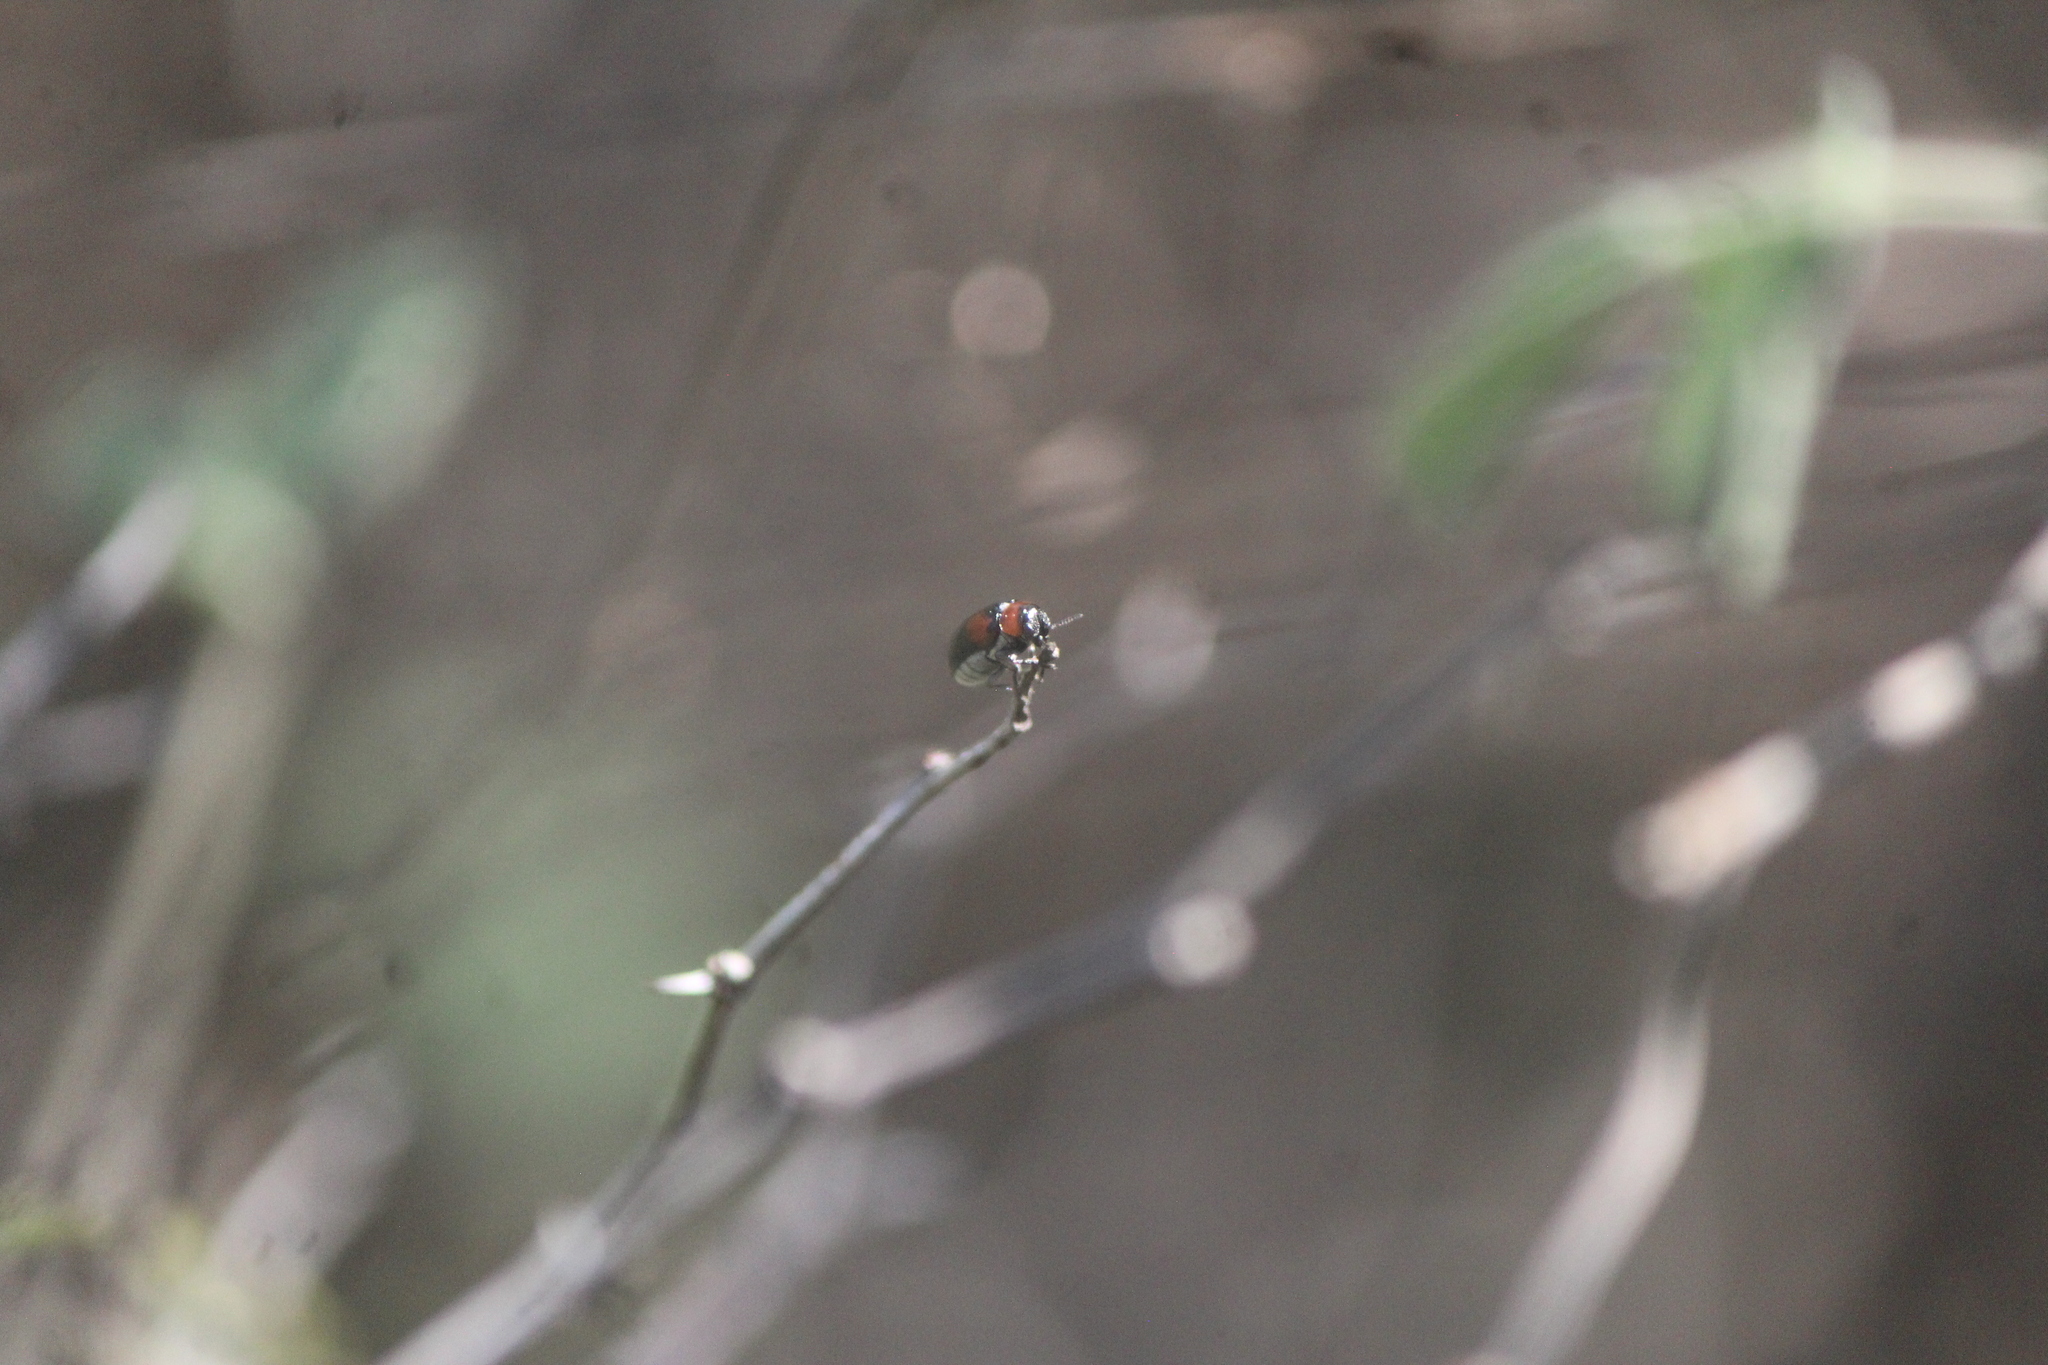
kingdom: Animalia
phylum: Arthropoda
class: Insecta
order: Coleoptera
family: Chrysomelidae
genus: Anomoea
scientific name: Anomoea rufifrons
